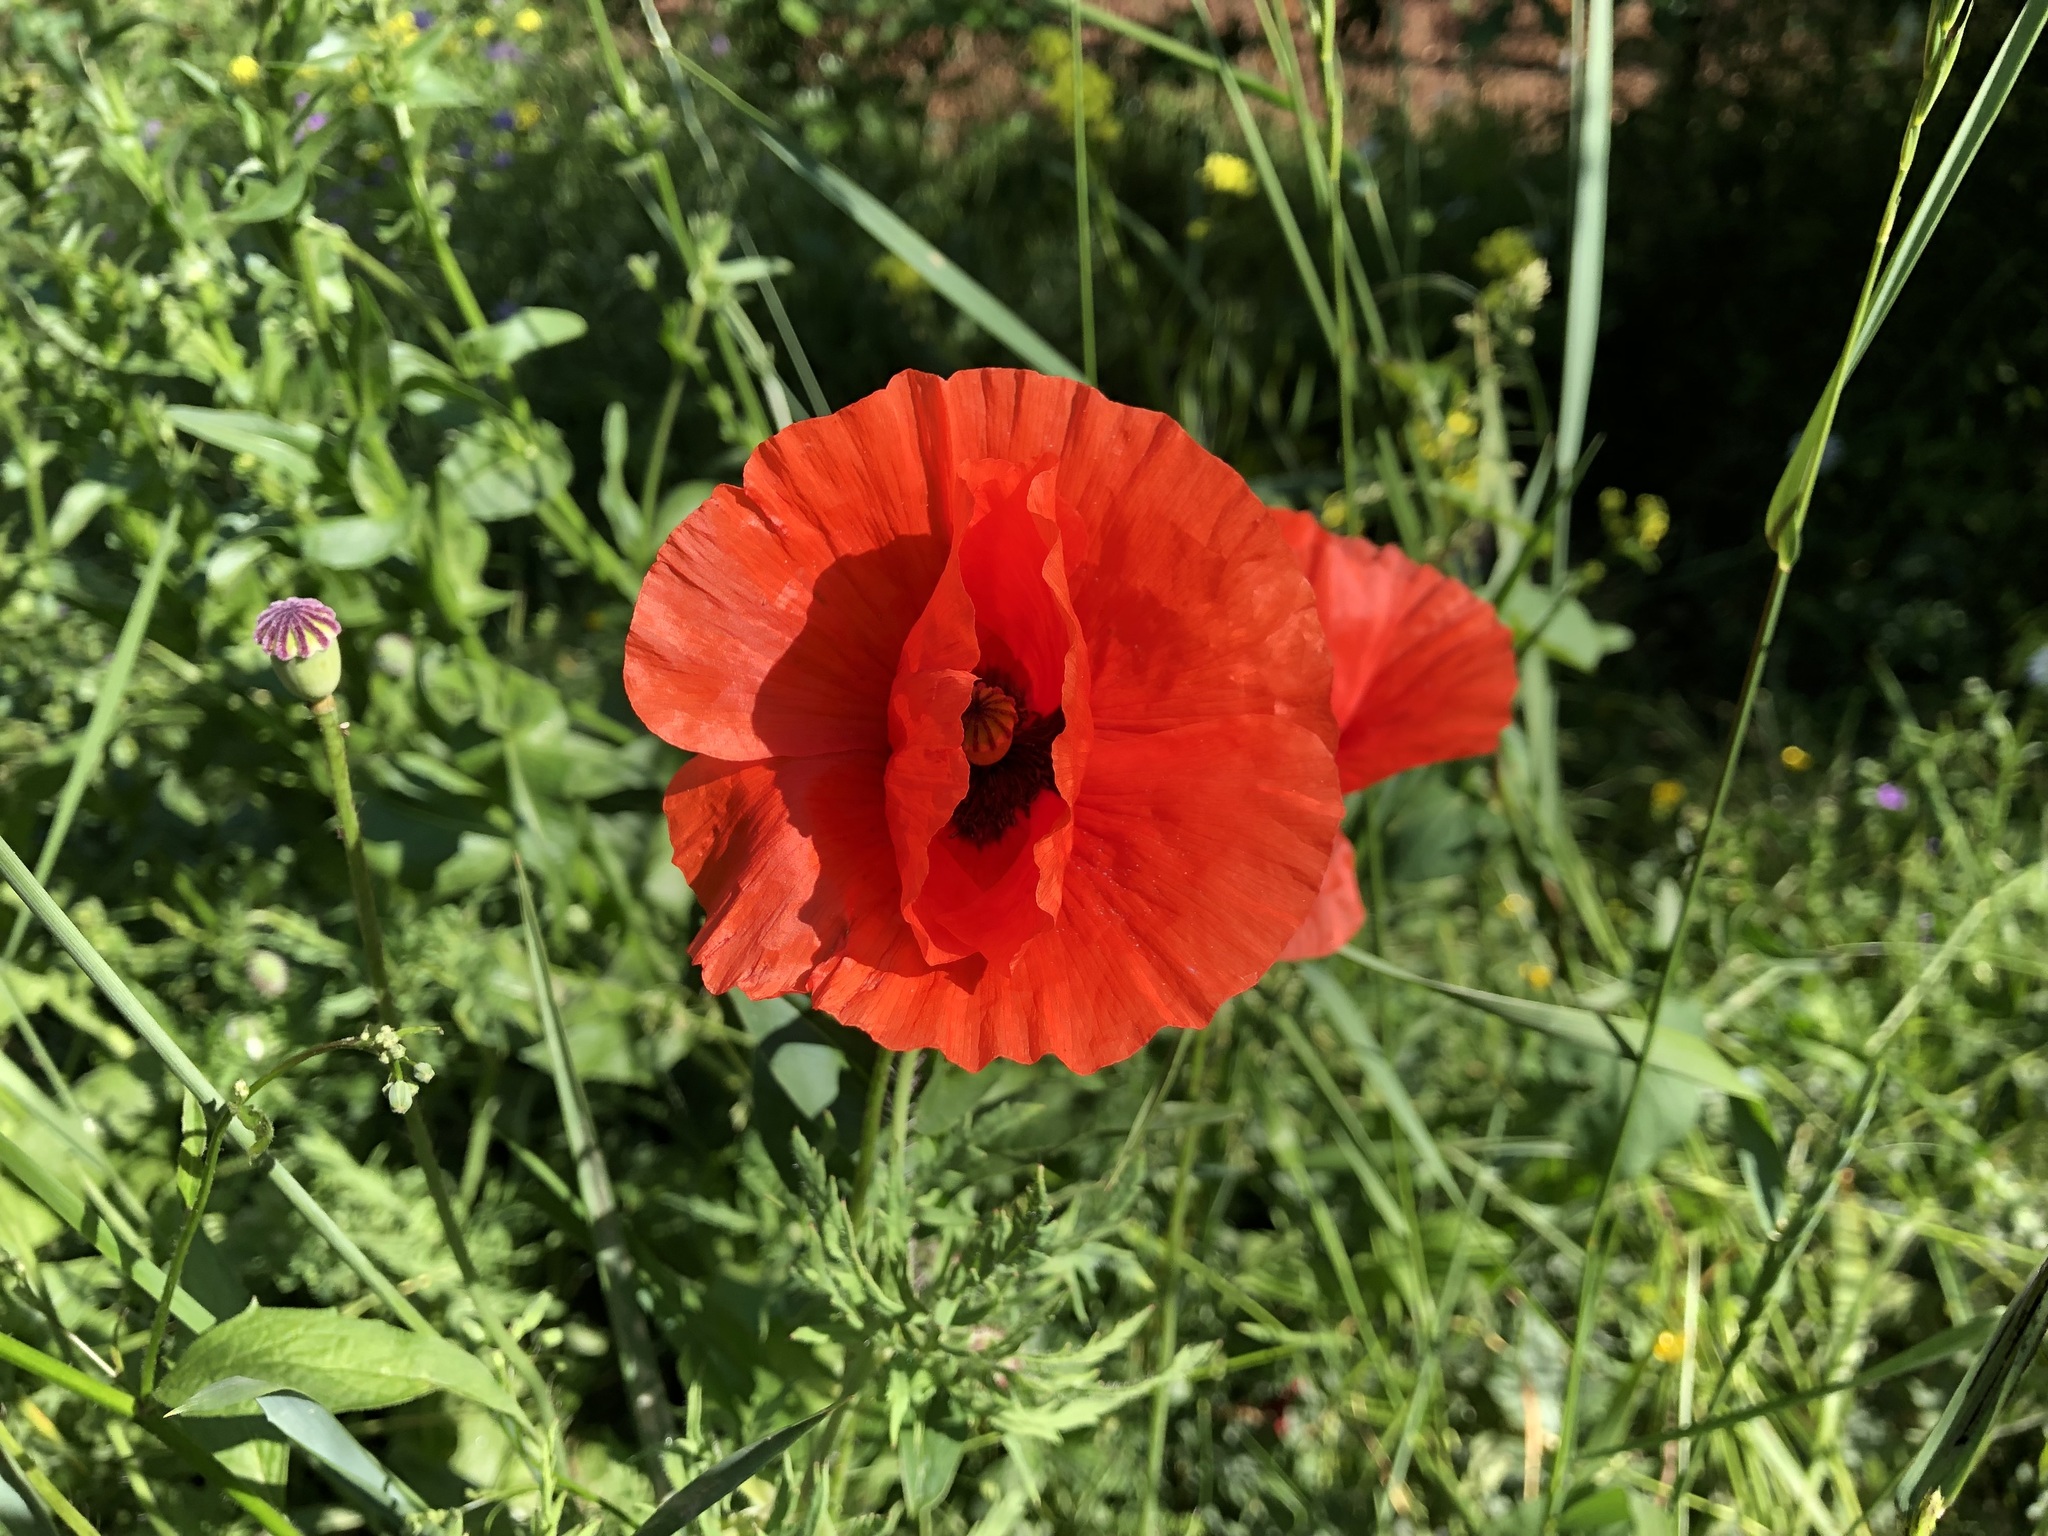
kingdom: Plantae
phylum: Tracheophyta
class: Magnoliopsida
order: Ranunculales
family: Papaveraceae
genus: Papaver
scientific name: Papaver rhoeas
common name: Corn poppy
